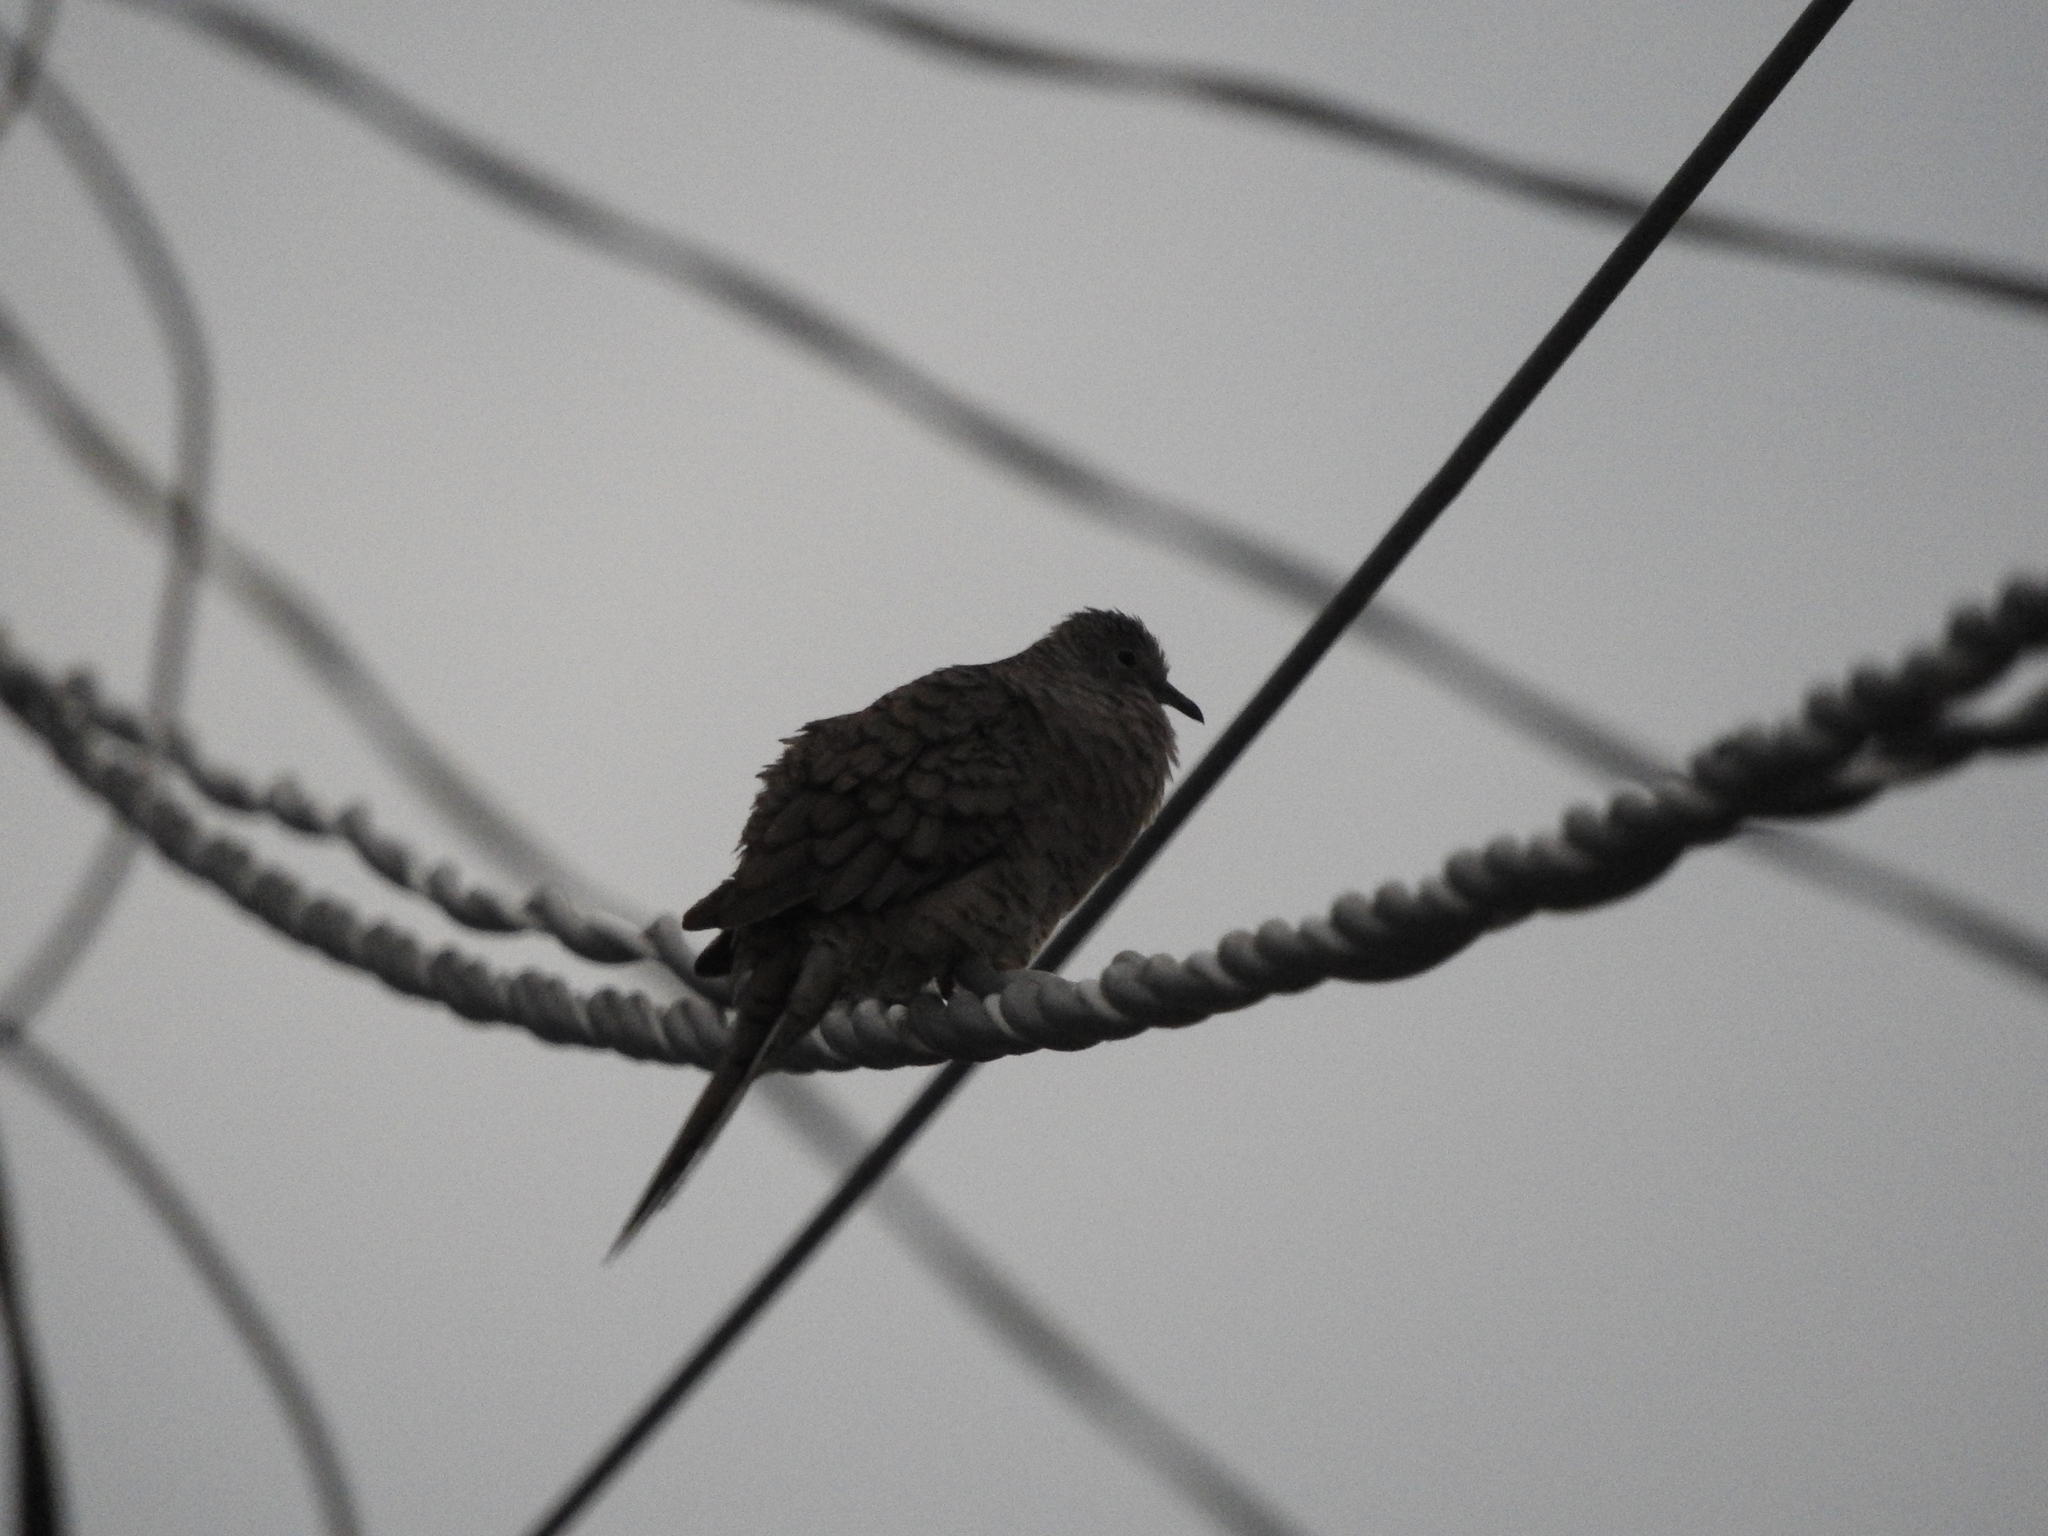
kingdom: Animalia
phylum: Chordata
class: Aves
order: Columbiformes
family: Columbidae
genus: Columbina
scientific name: Columbina inca
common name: Inca dove
